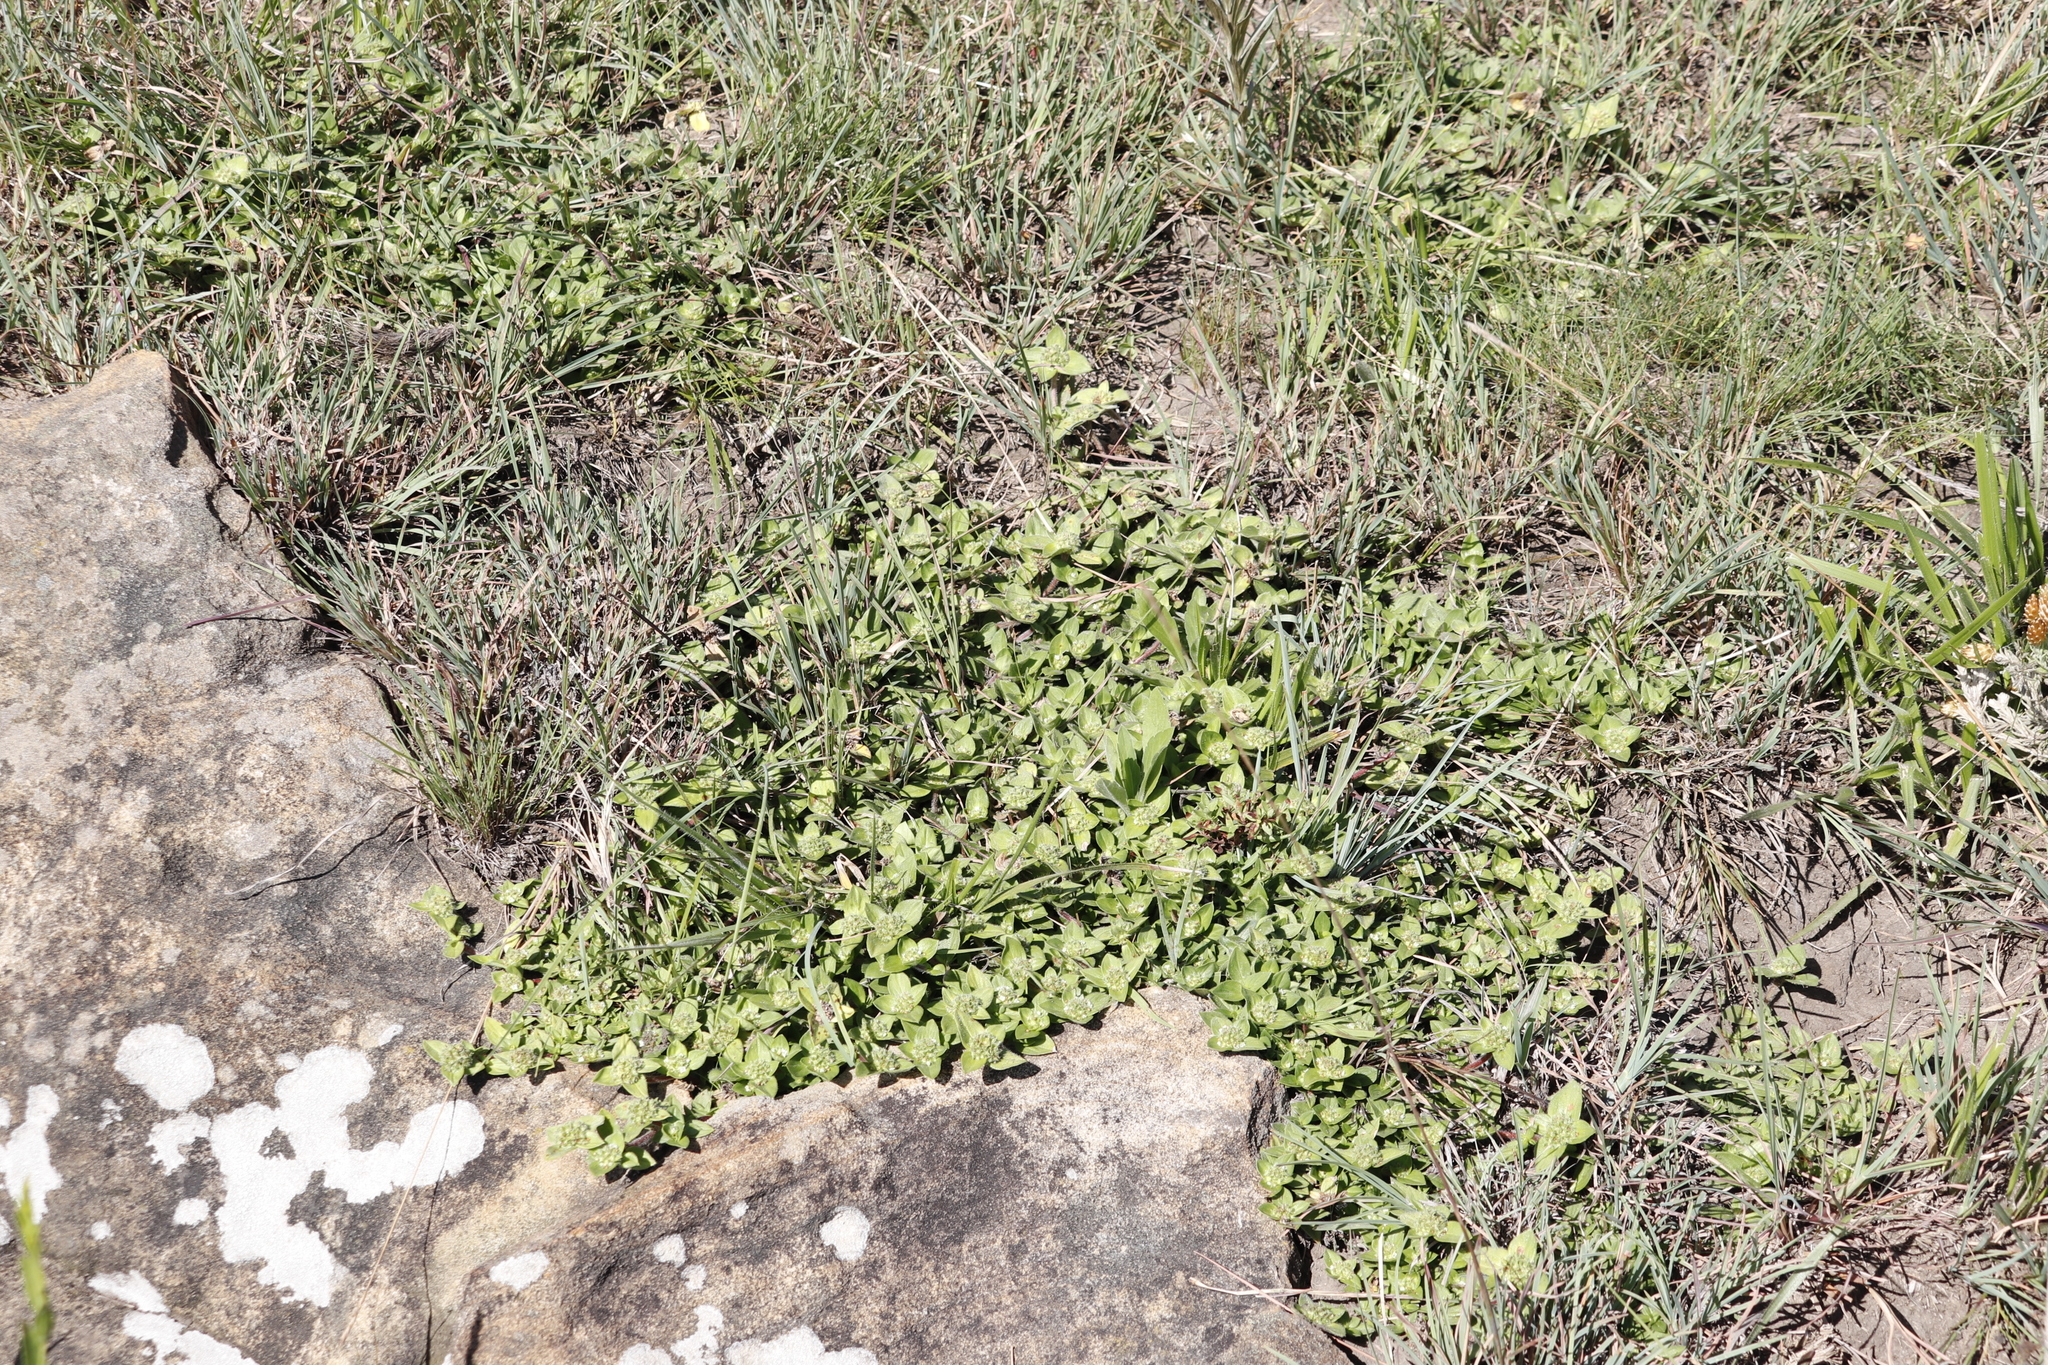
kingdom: Plantae
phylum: Tracheophyta
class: Magnoliopsida
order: Gentianales
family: Rubiaceae
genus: Richardia
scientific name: Richardia brasiliensis
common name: Tropical mexican clover
